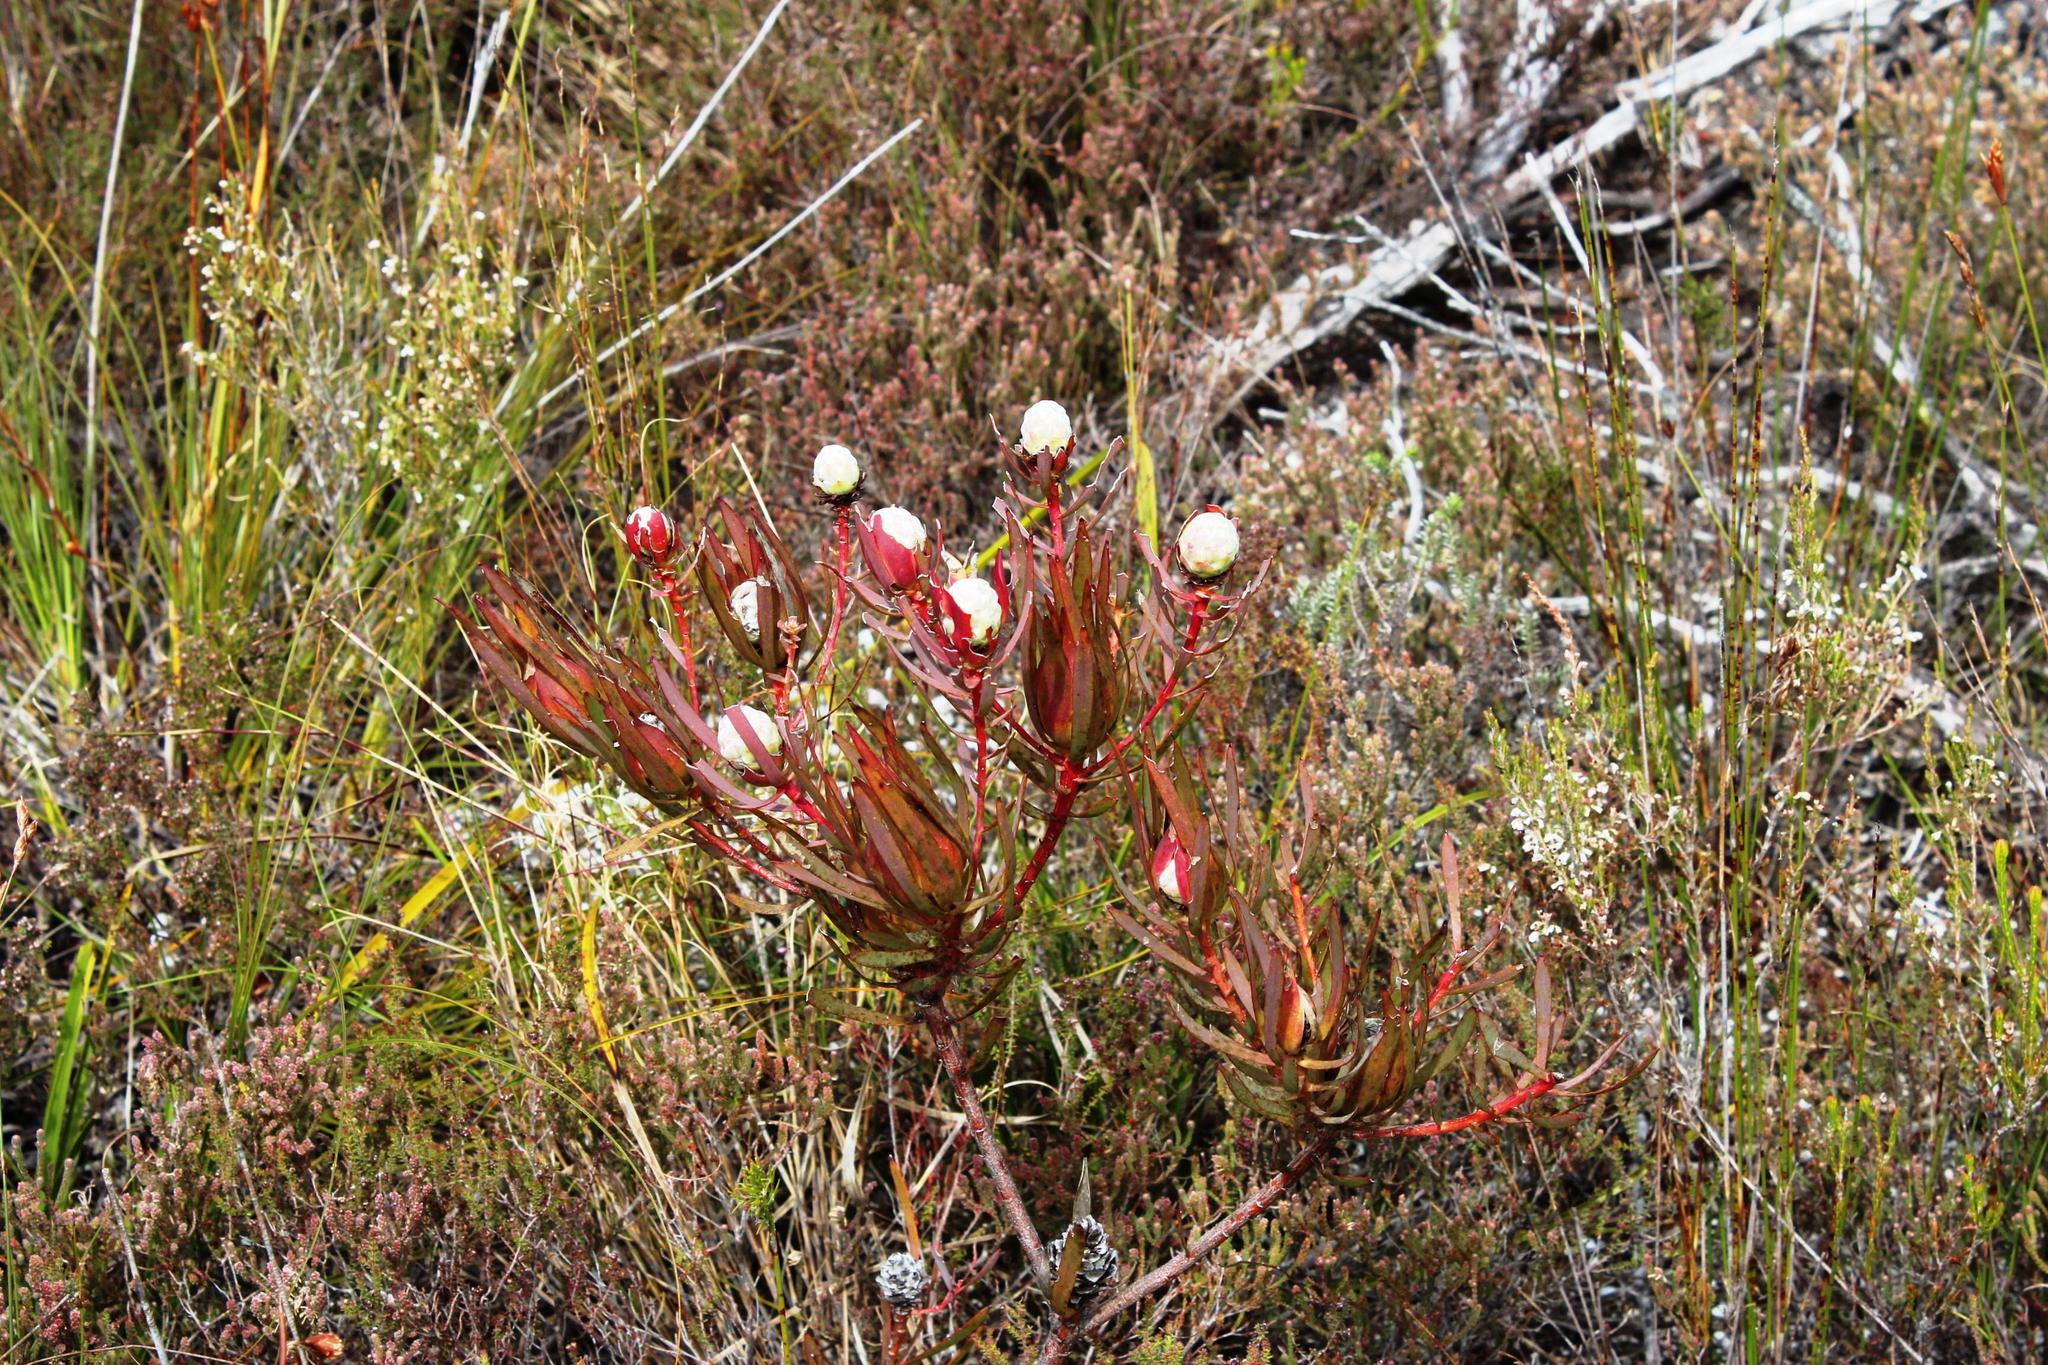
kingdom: Plantae
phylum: Tracheophyta
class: Magnoliopsida
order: Proteales
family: Proteaceae
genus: Leucadendron
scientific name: Leucadendron salignum
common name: Common sunshine conebush
